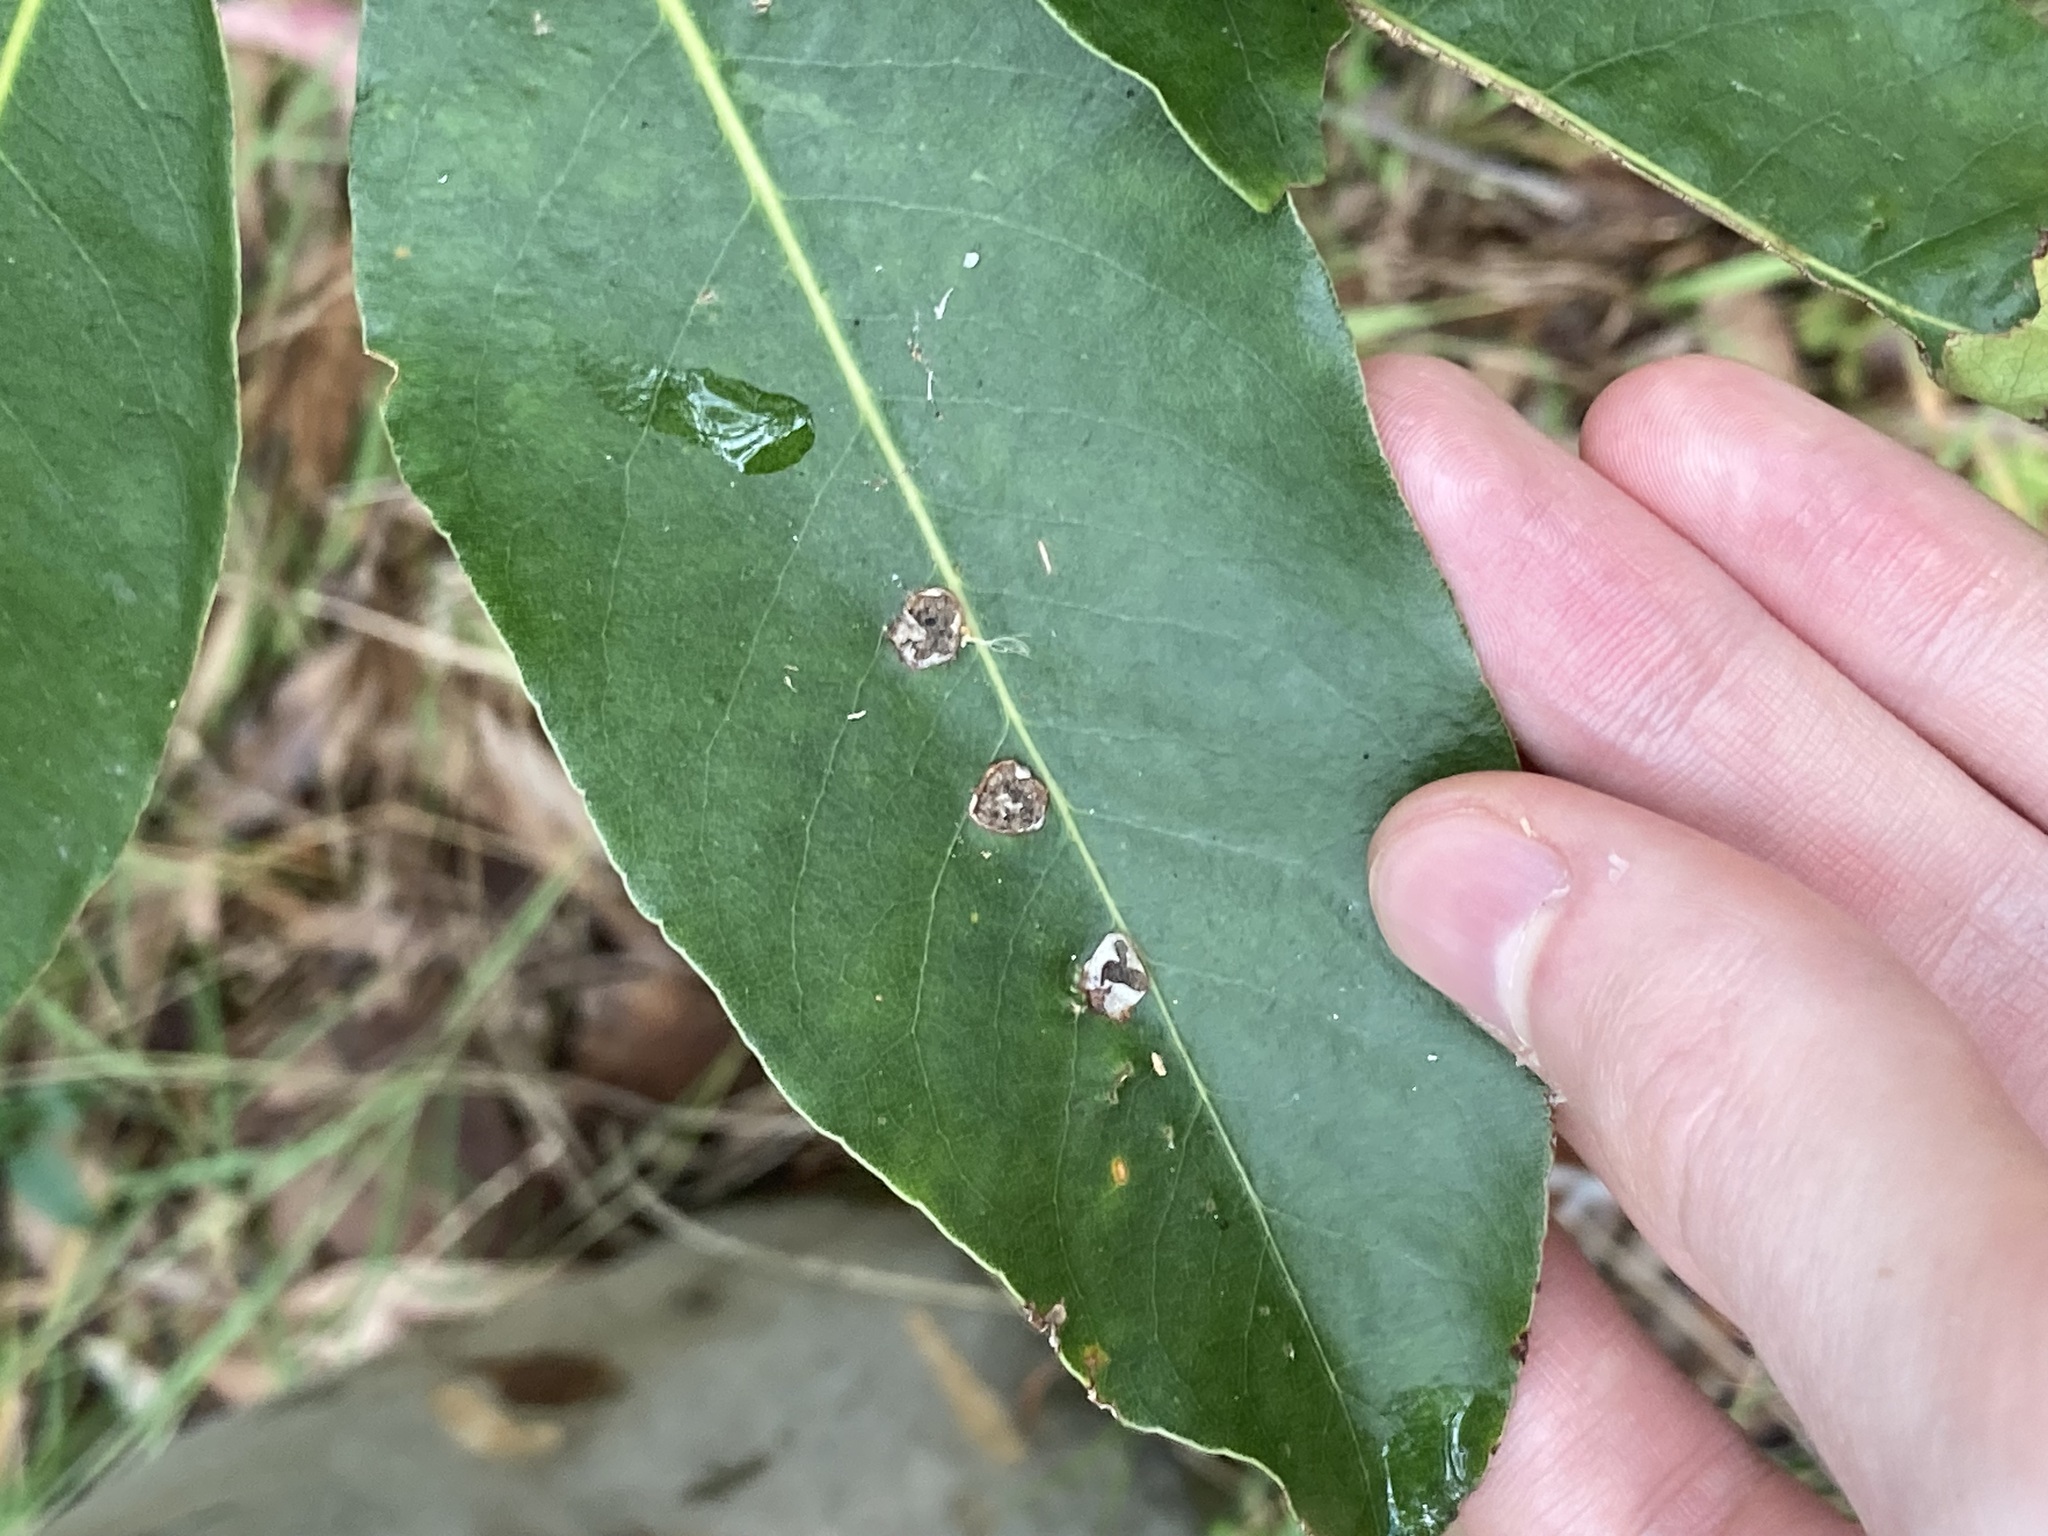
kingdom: Animalia
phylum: Arthropoda
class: Insecta
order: Diptera
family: Agromyzidae
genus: Phytoliriomyza
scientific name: Phytoliriomyza pittosporophylli
